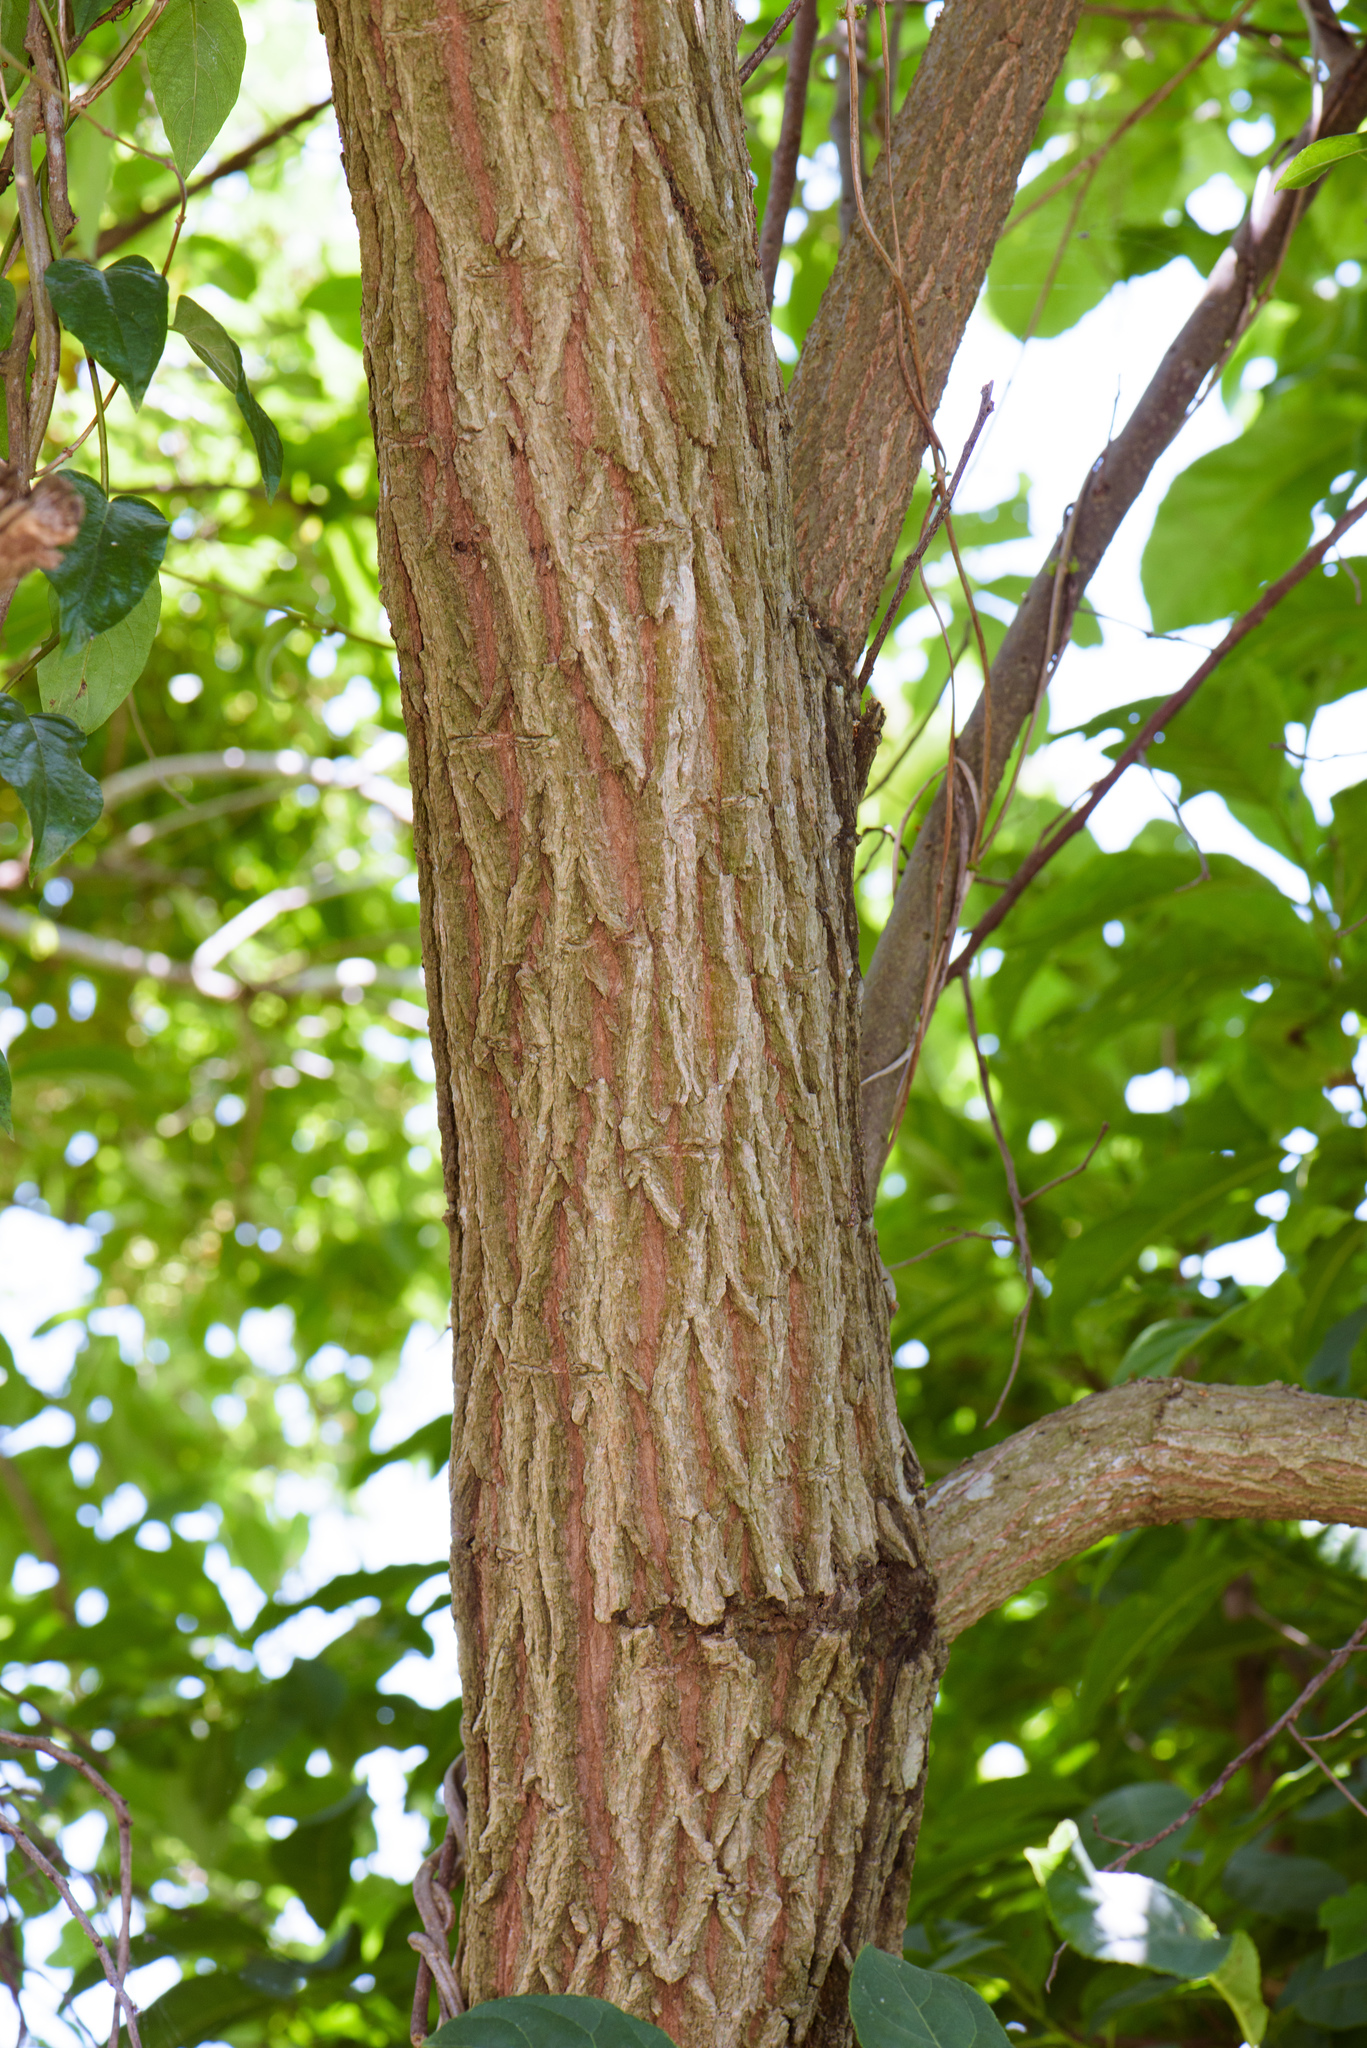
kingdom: Plantae
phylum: Tracheophyta
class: Magnoliopsida
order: Boraginales
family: Ehretiaceae
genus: Ehretia
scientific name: Ehretia acuminata
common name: Kodo wood
